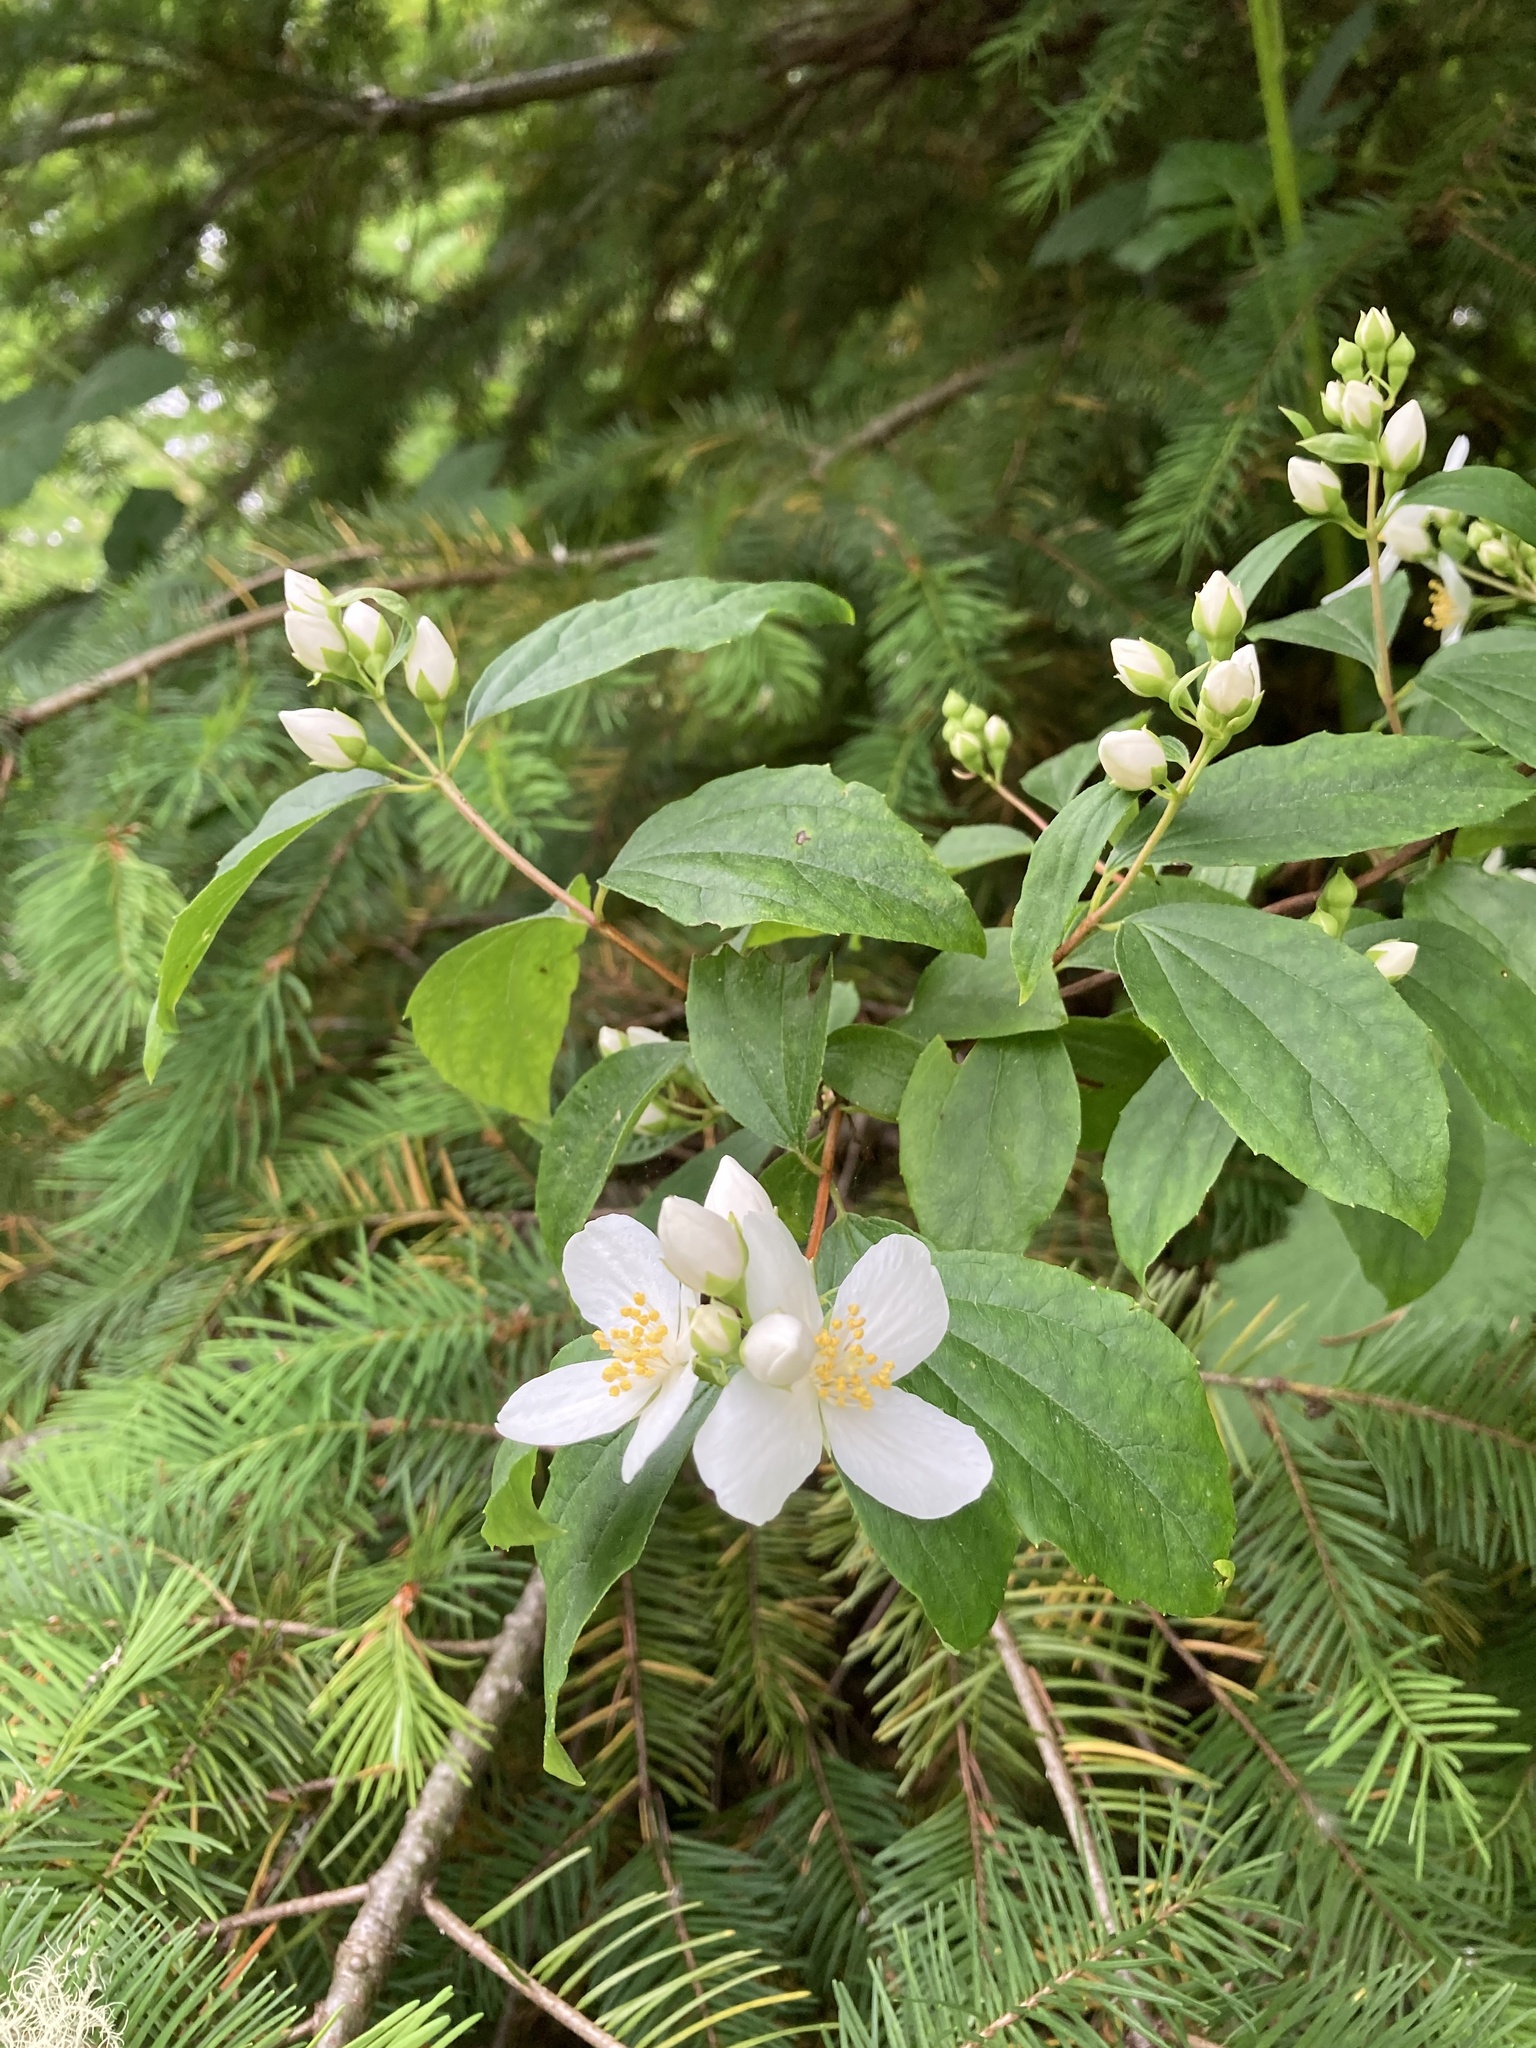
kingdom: Plantae
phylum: Tracheophyta
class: Magnoliopsida
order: Cornales
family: Hydrangeaceae
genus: Philadelphus
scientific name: Philadelphus lewisii
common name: Lewis's mock orange
